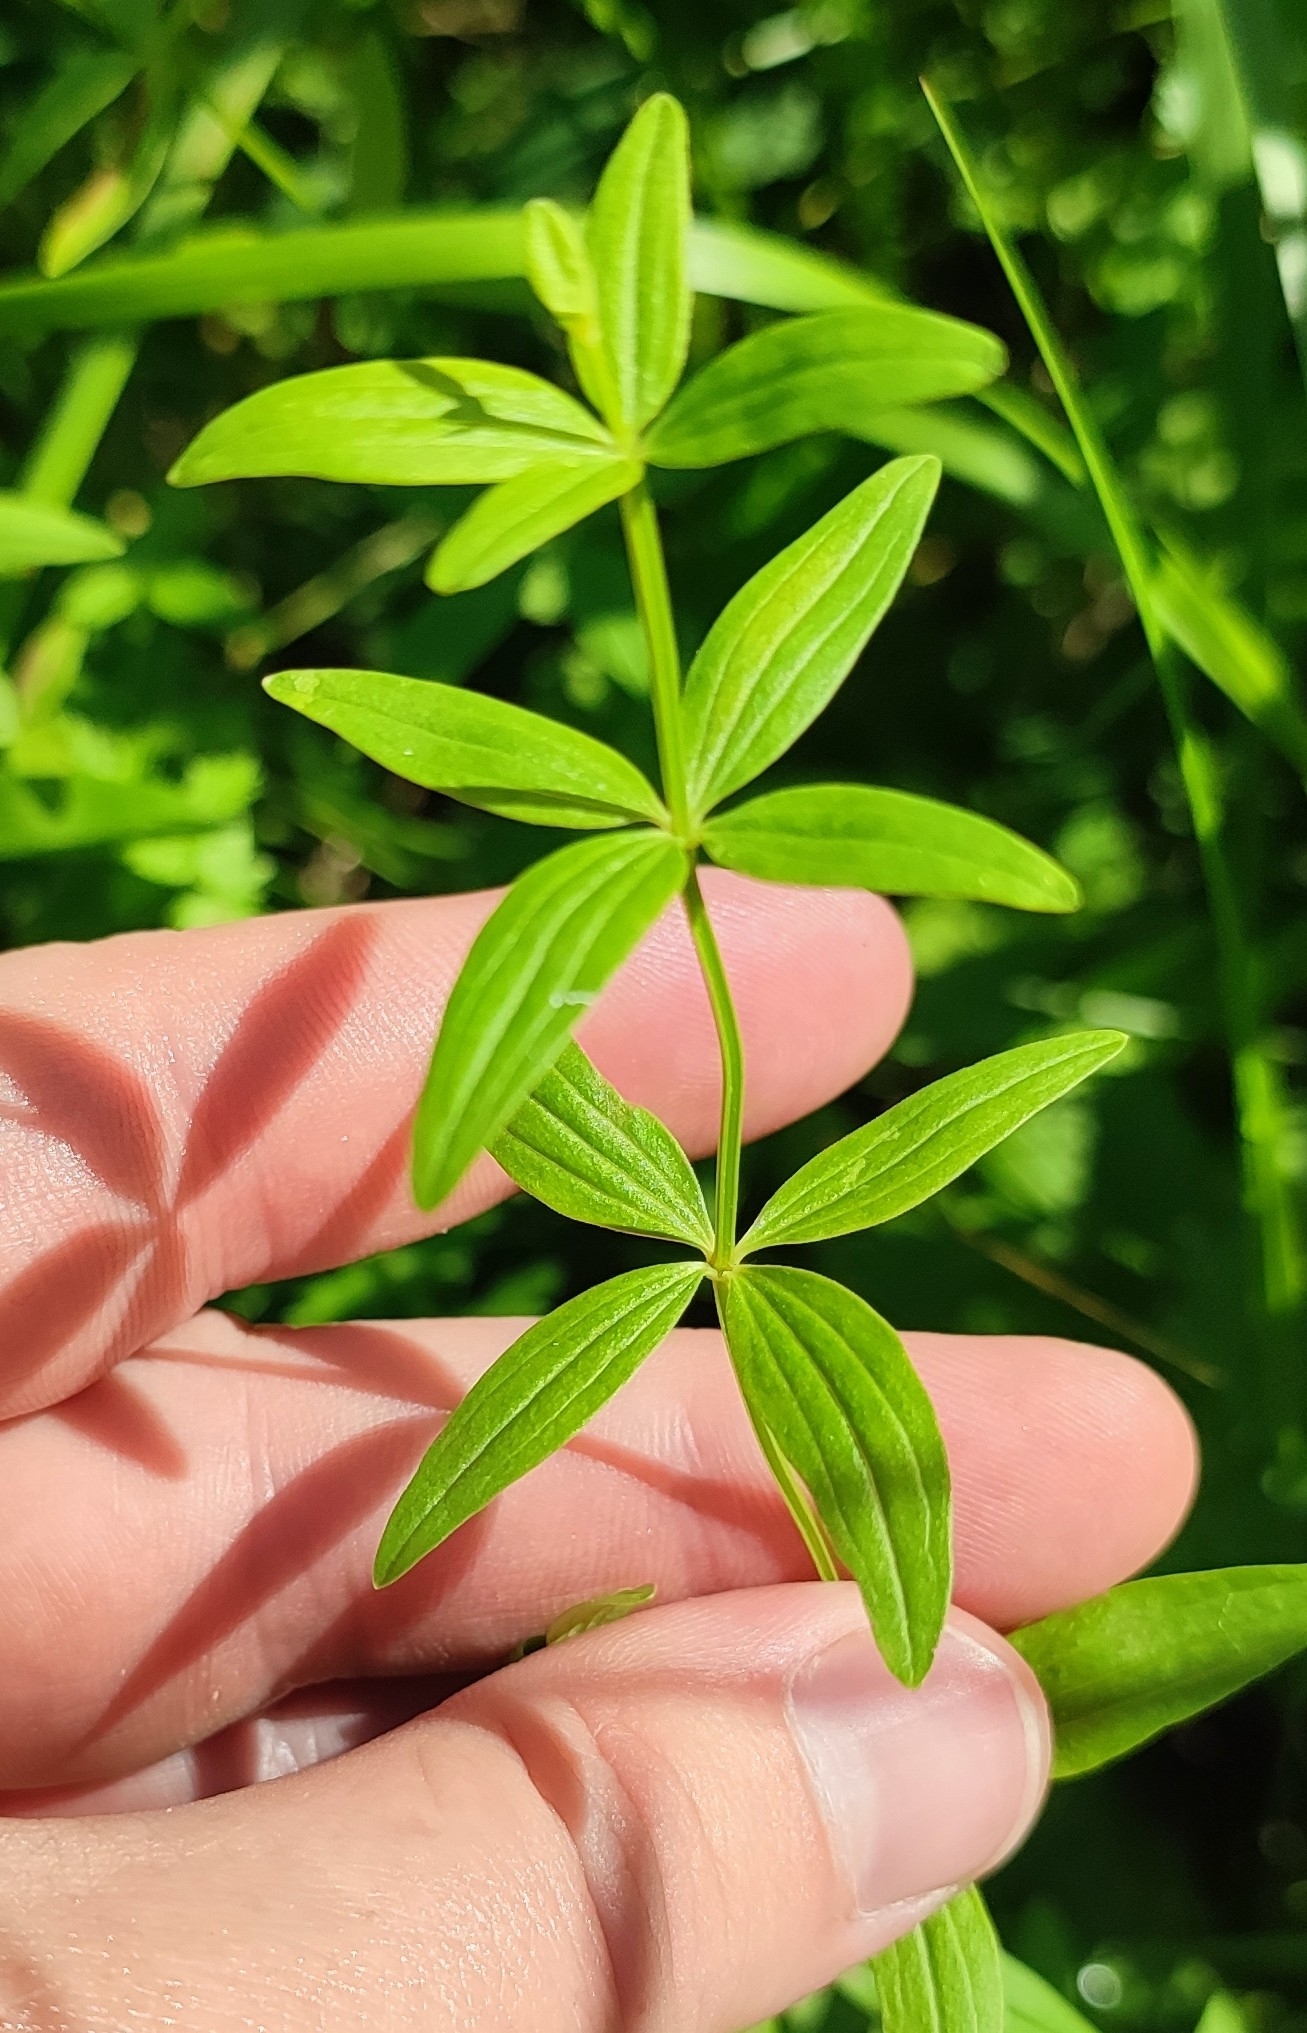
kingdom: Plantae
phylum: Tracheophyta
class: Magnoliopsida
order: Gentianales
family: Rubiaceae
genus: Galium
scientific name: Galium boreale
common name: Northern bedstraw
